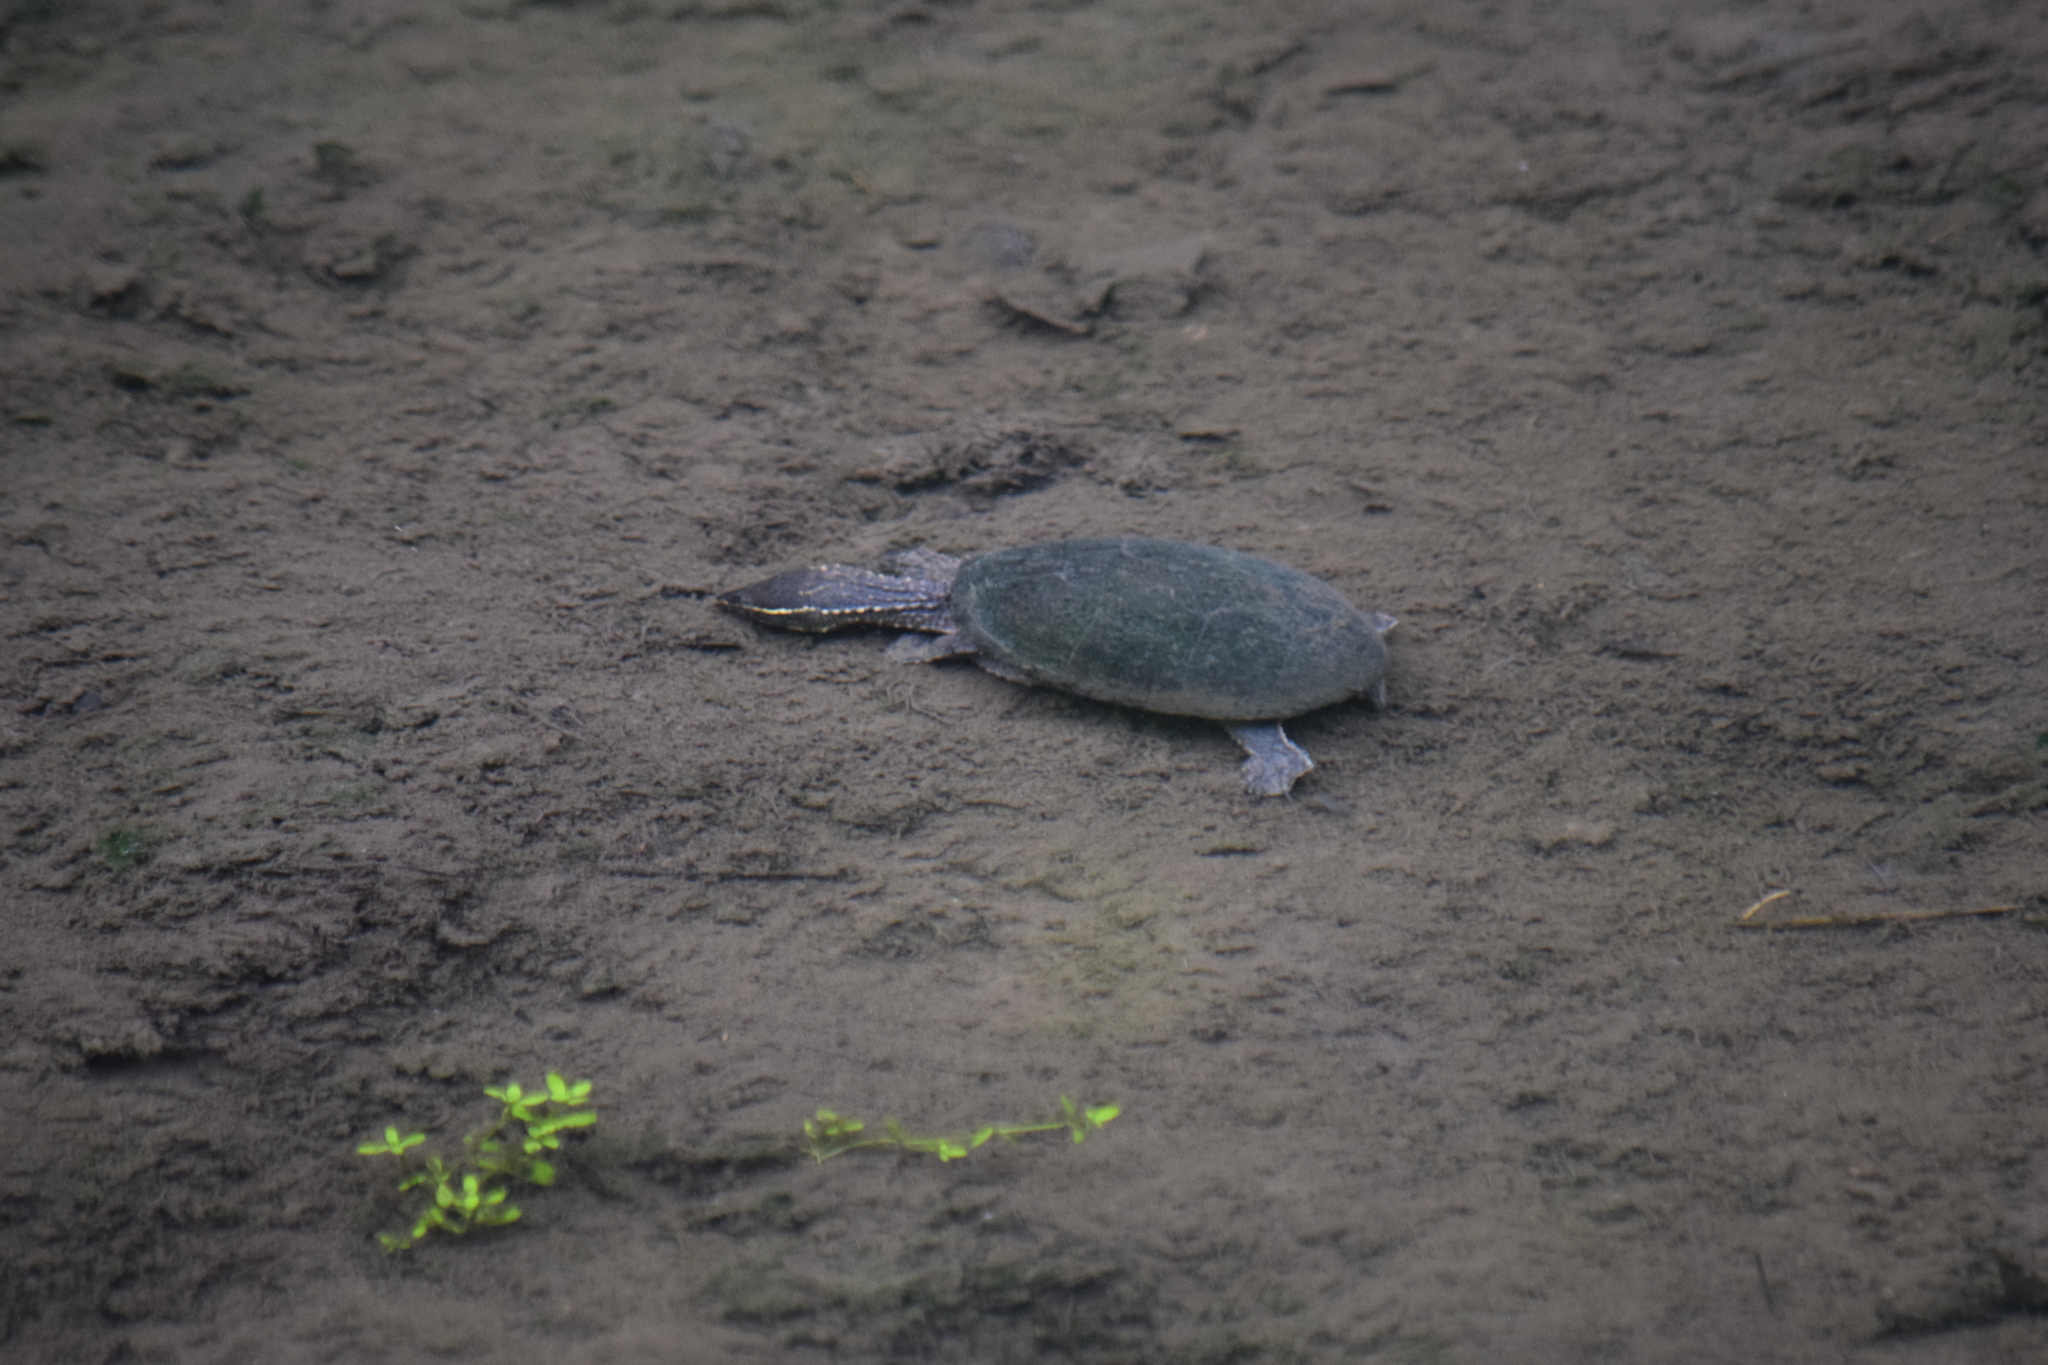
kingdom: Animalia
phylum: Chordata
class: Testudines
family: Kinosternidae
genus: Sternotherus
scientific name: Sternotherus odoratus
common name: Common musk turtle
